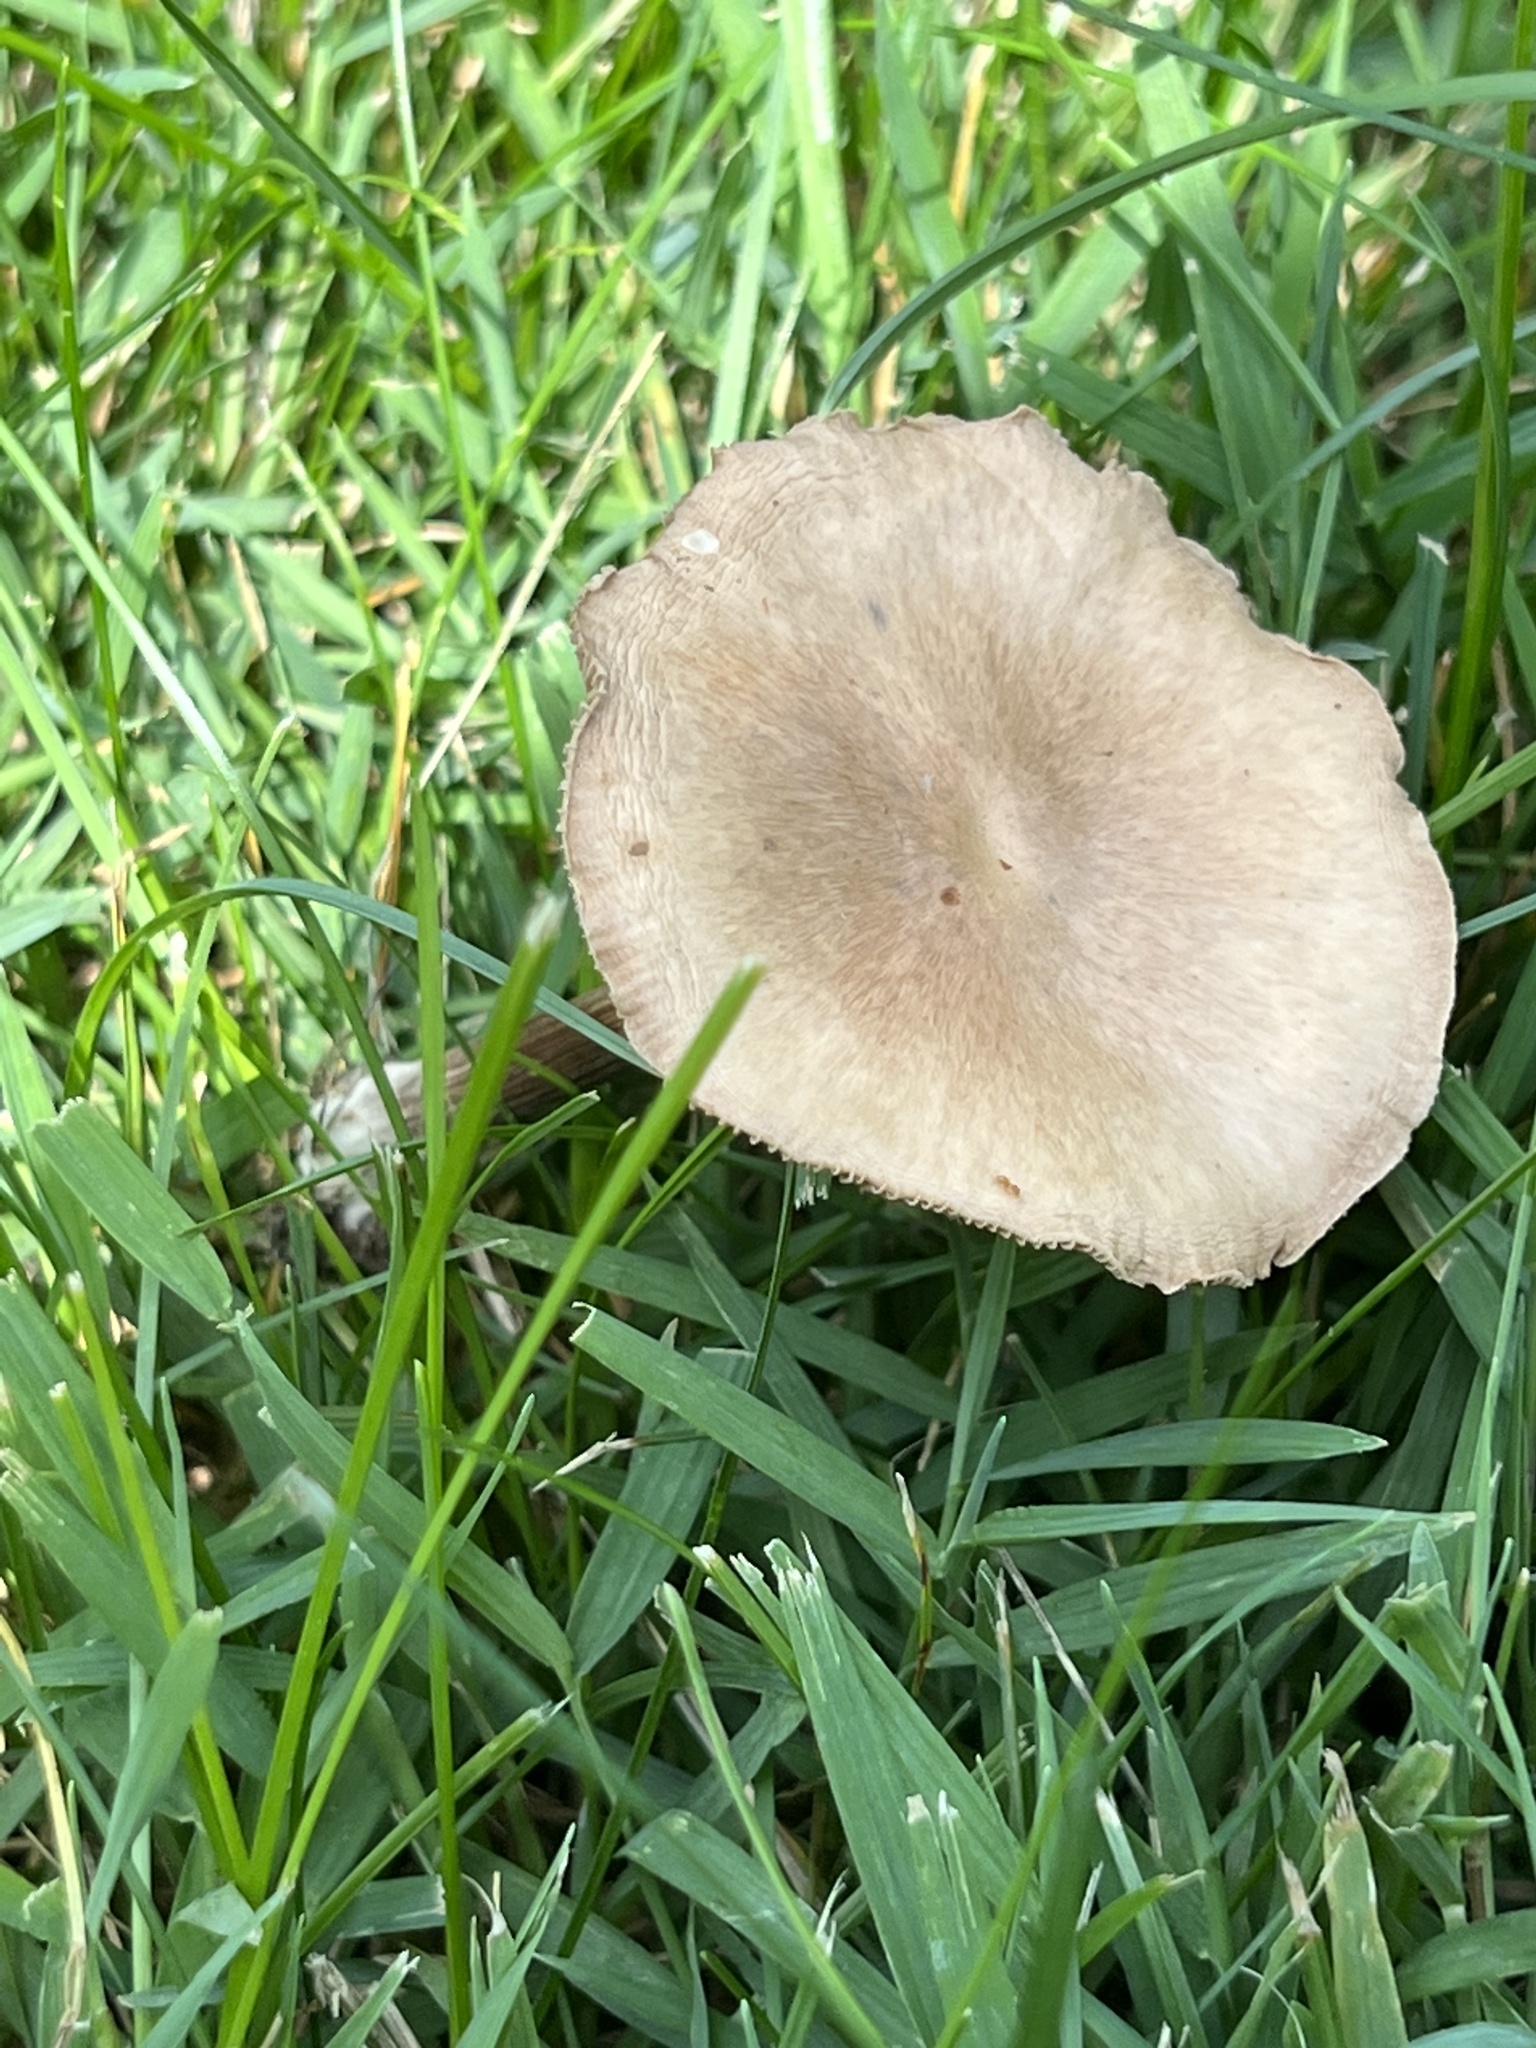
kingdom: Fungi
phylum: Basidiomycota
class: Agaricomycetes
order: Agaricales
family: Marasmiaceae
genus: Marasmius
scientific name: Marasmius oreades
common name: Fairy ring champignon
